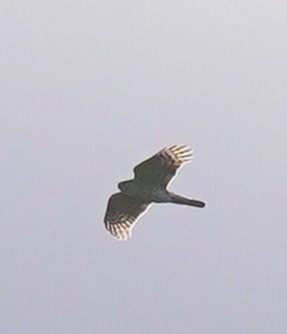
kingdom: Animalia
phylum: Chordata
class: Aves
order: Accipitriformes
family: Accipitridae
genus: Accipiter
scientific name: Accipiter striatus
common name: Sharp-shinned hawk
